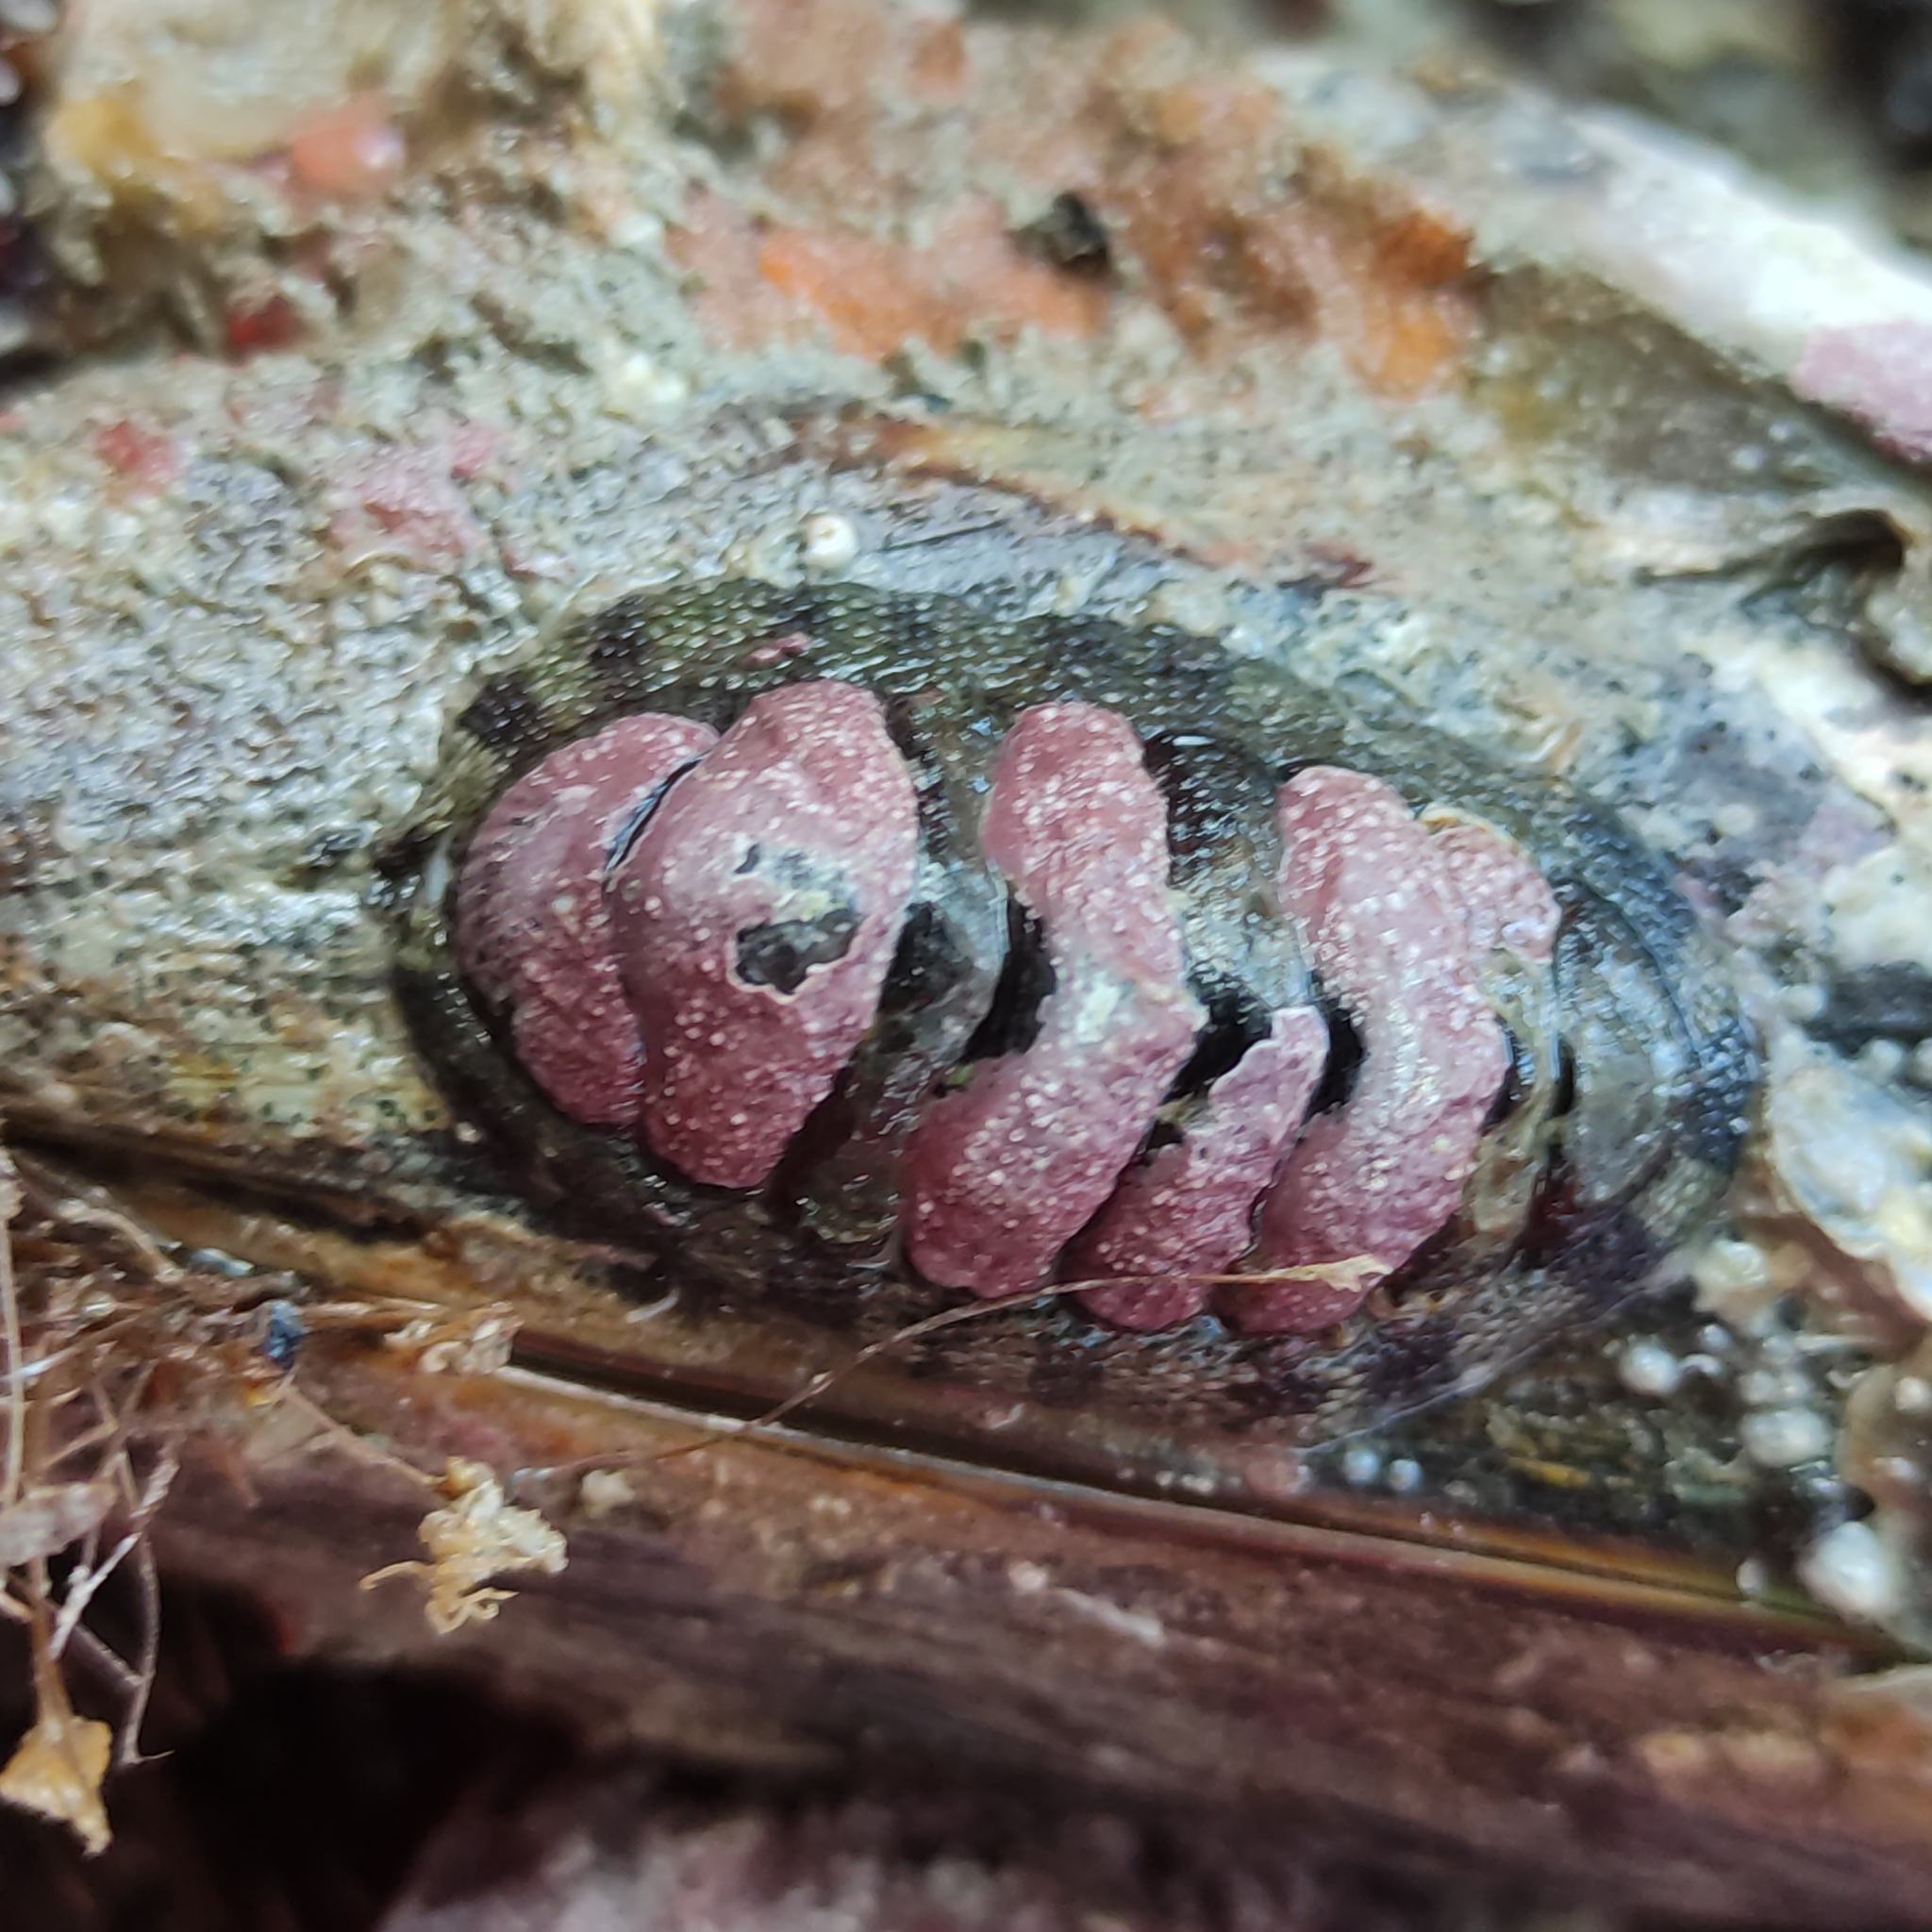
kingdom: Animalia
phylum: Mollusca
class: Polyplacophora
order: Chitonida
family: Chitonidae
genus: Sypharochiton
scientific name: Sypharochiton pelliserpentis
